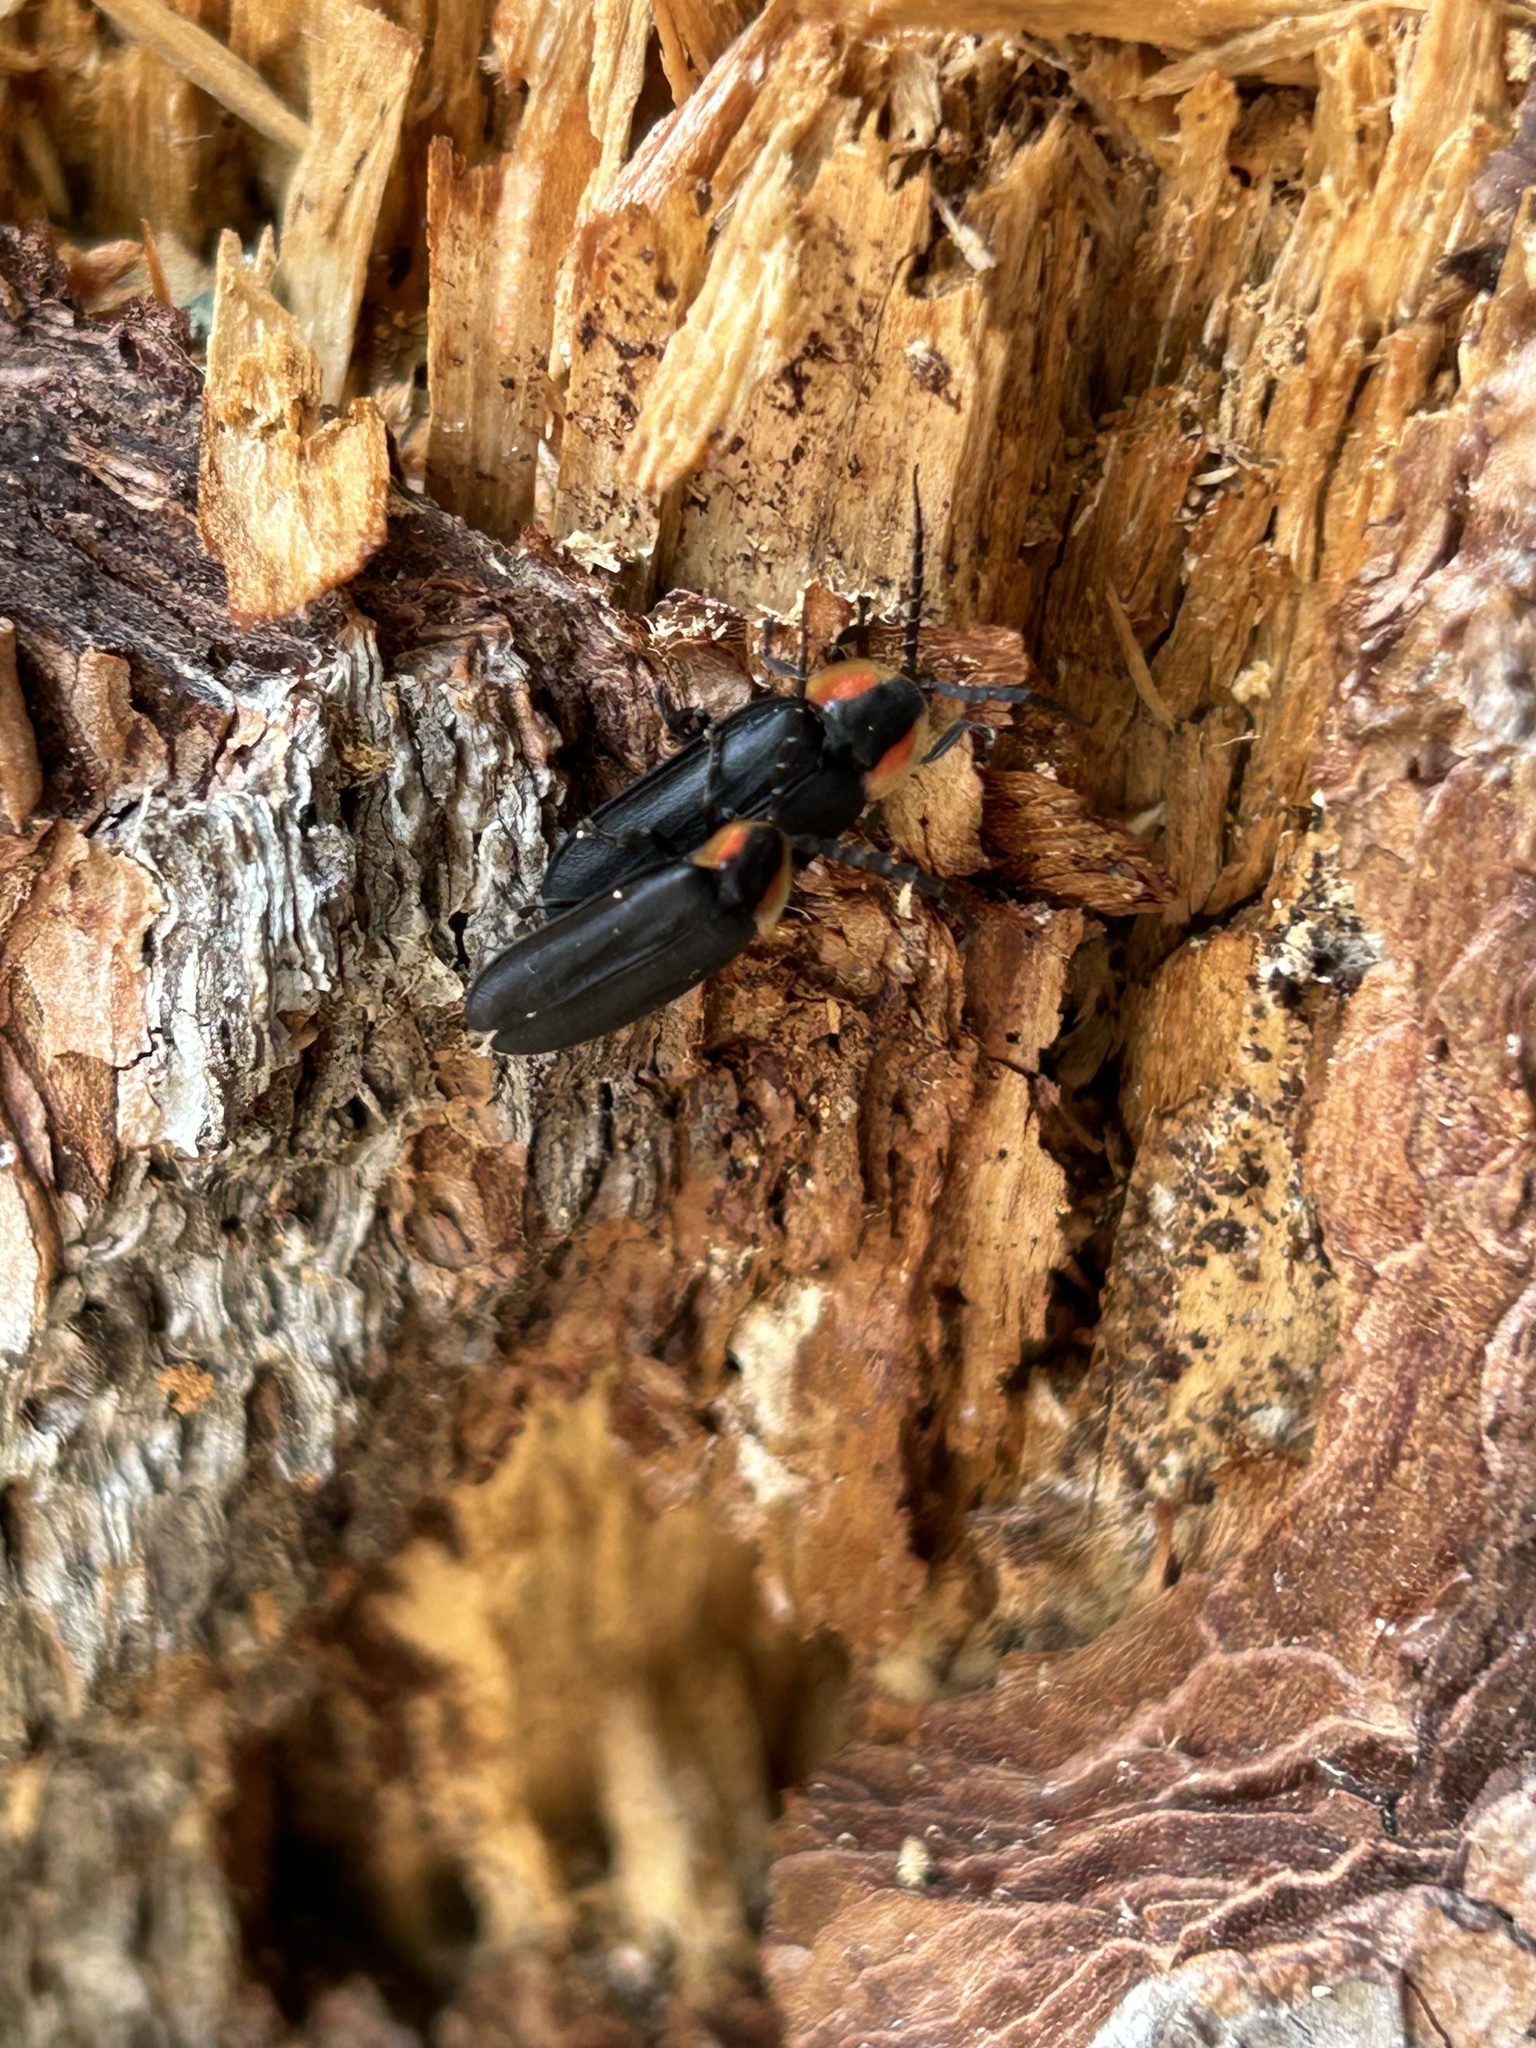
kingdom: Animalia
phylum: Arthropoda
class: Insecta
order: Coleoptera
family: Lampyridae
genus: Lucidota
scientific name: Lucidota atra
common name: Black firefly
